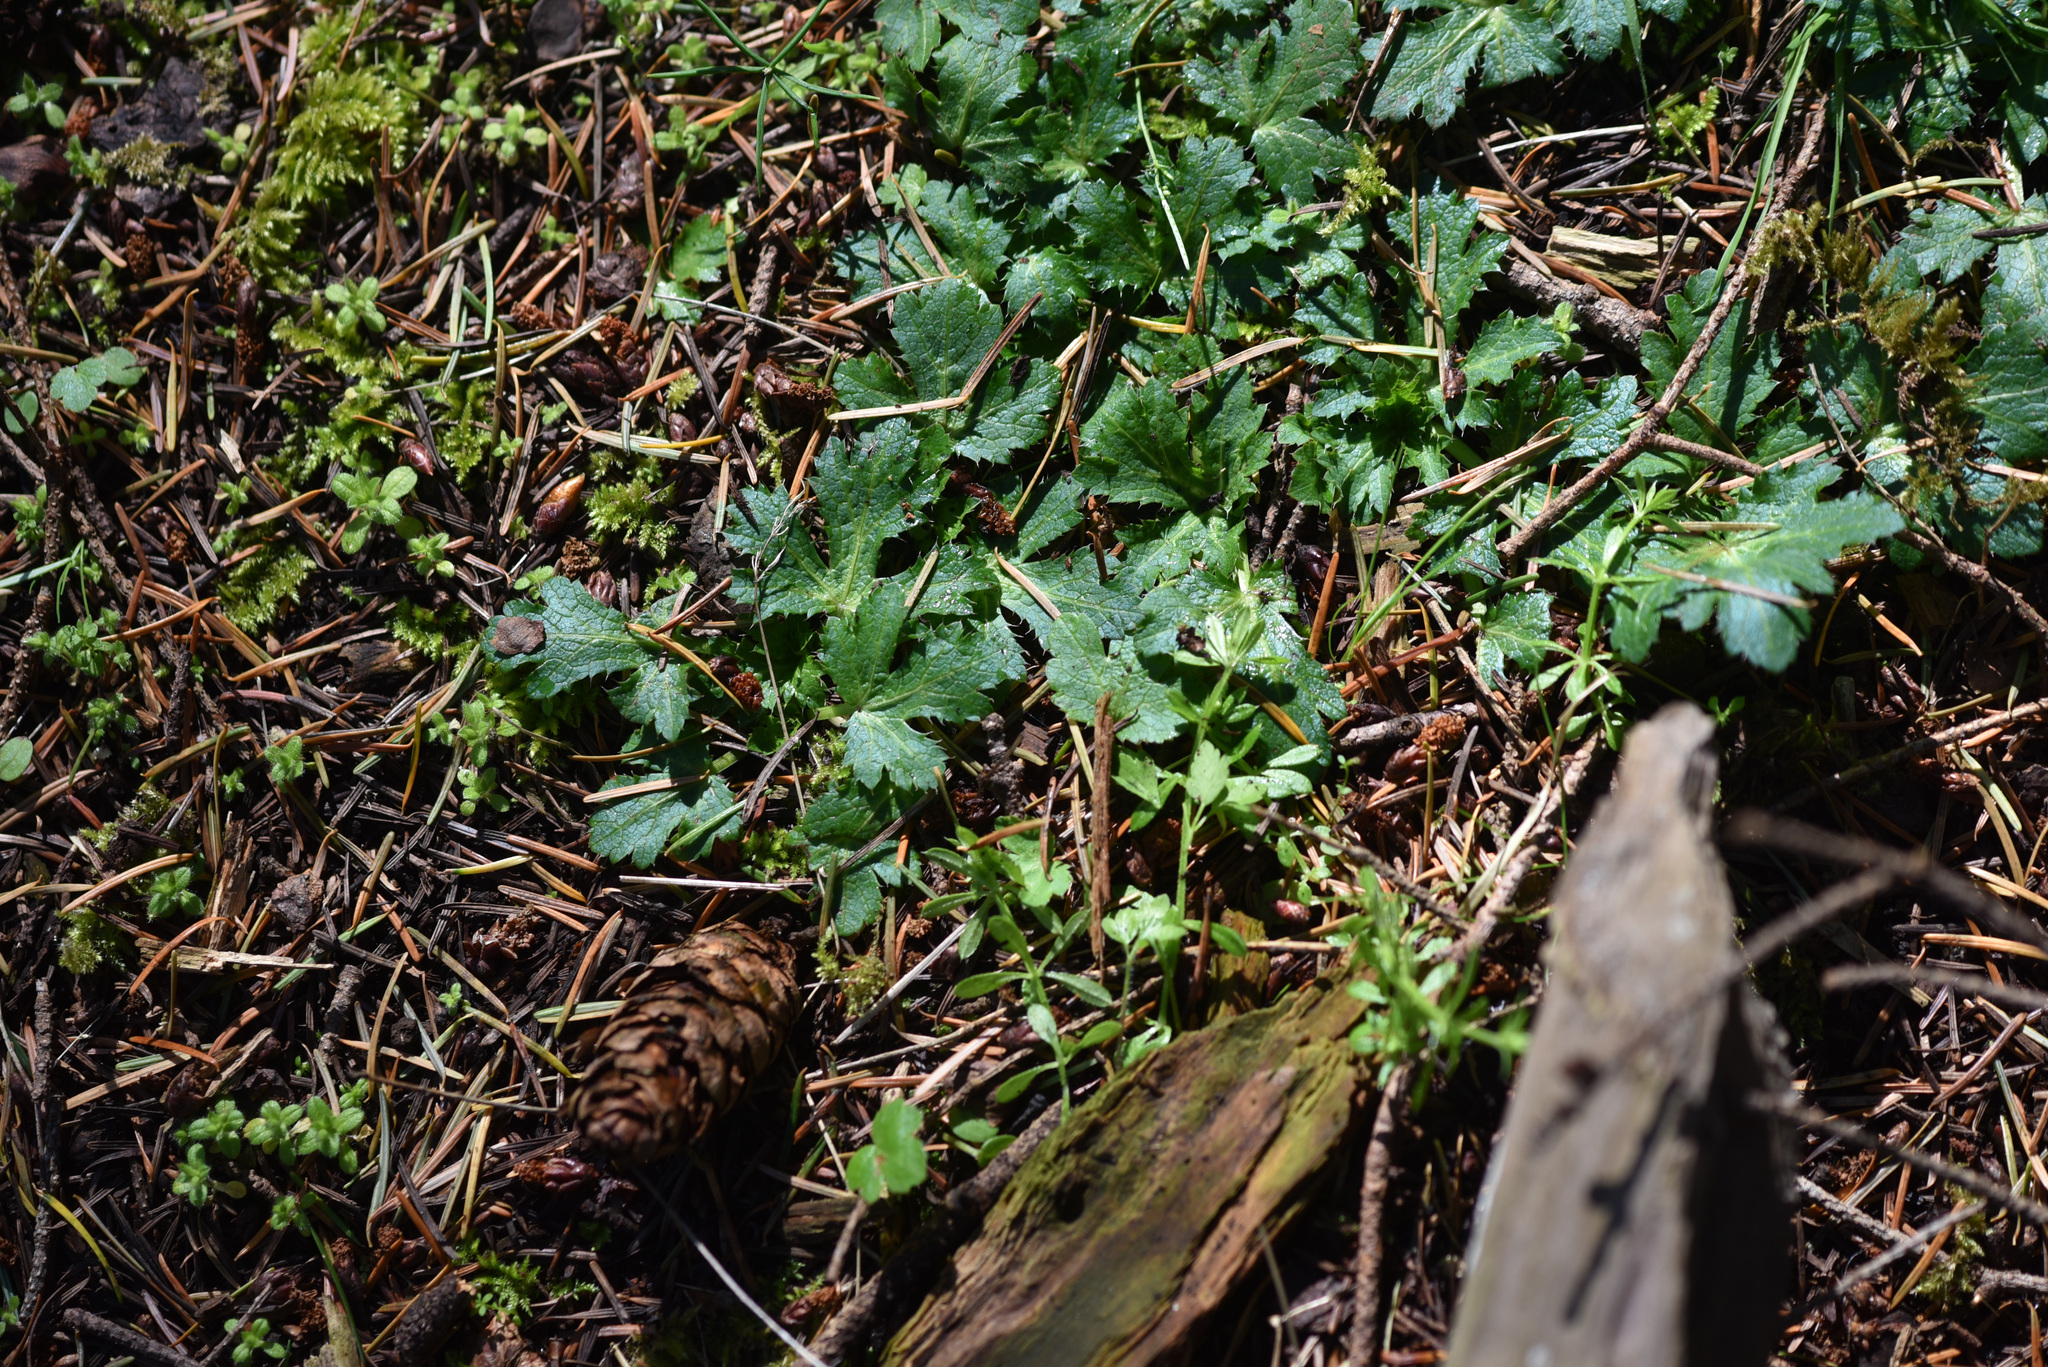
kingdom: Plantae
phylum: Tracheophyta
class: Magnoliopsida
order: Apiales
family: Apiaceae
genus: Sanicula
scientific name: Sanicula crassicaulis
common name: Western snakeroot
